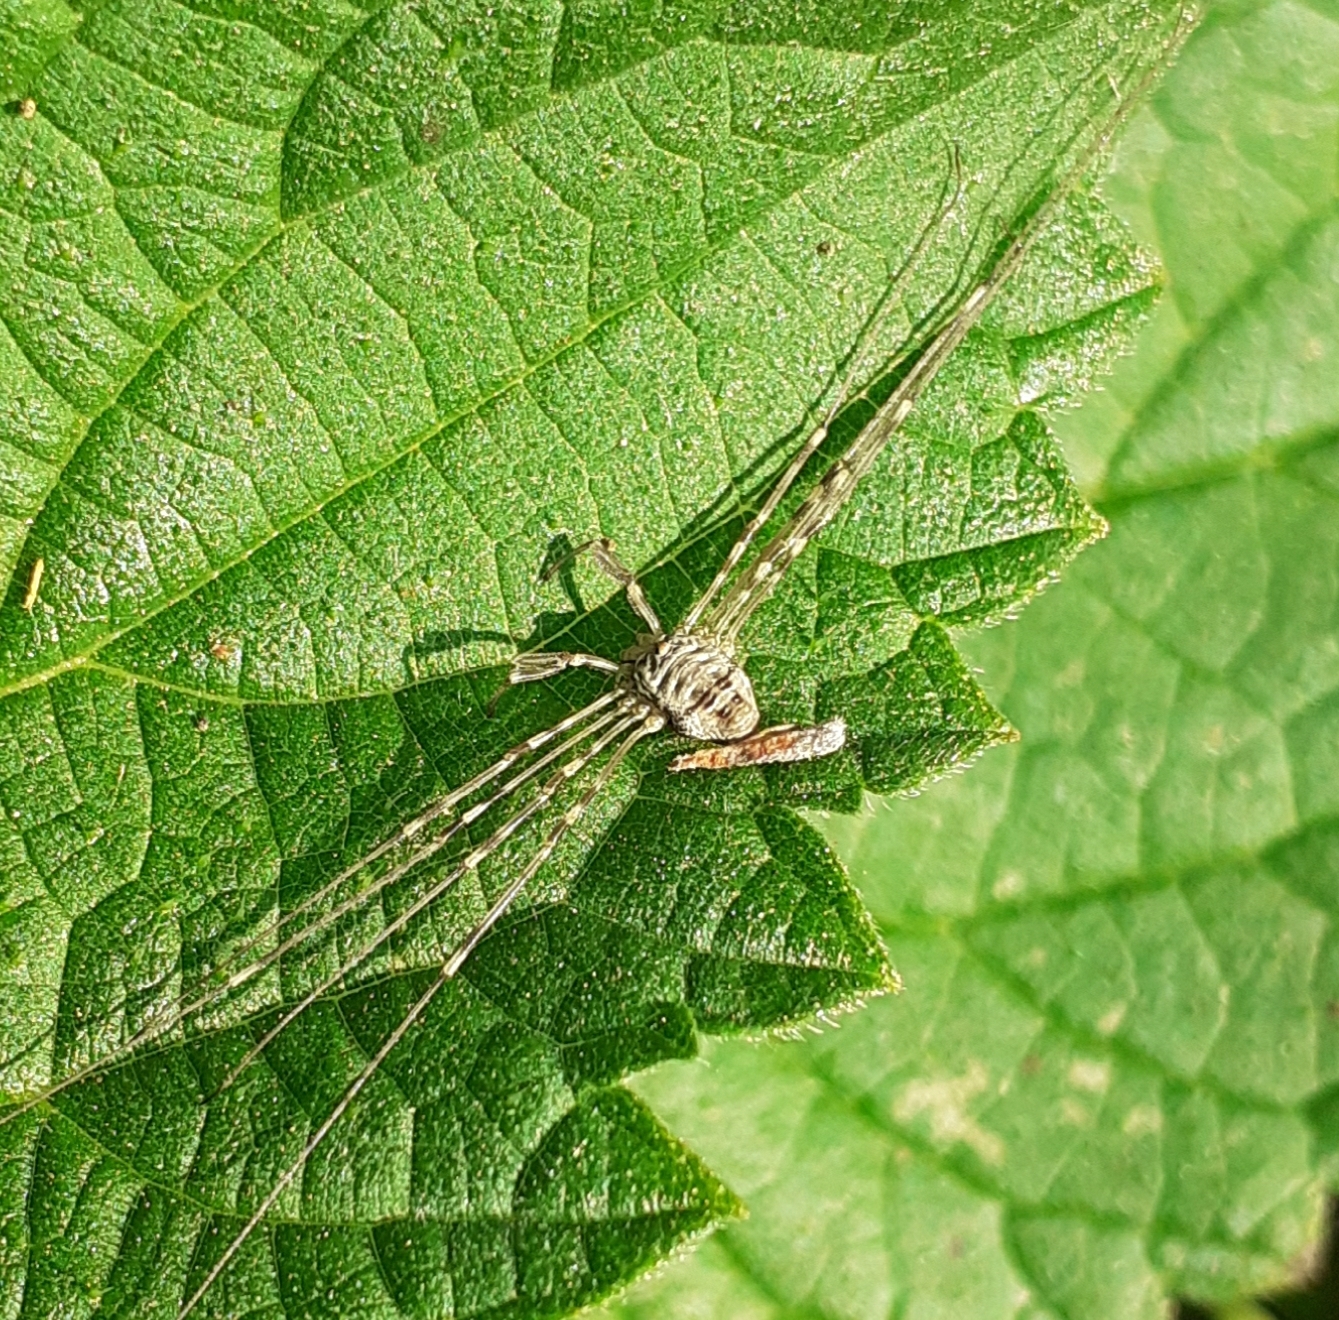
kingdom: Animalia
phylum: Arthropoda
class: Arachnida
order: Opiliones
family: Phalangiidae
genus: Dicranopalpus
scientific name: Dicranopalpus ramosus
